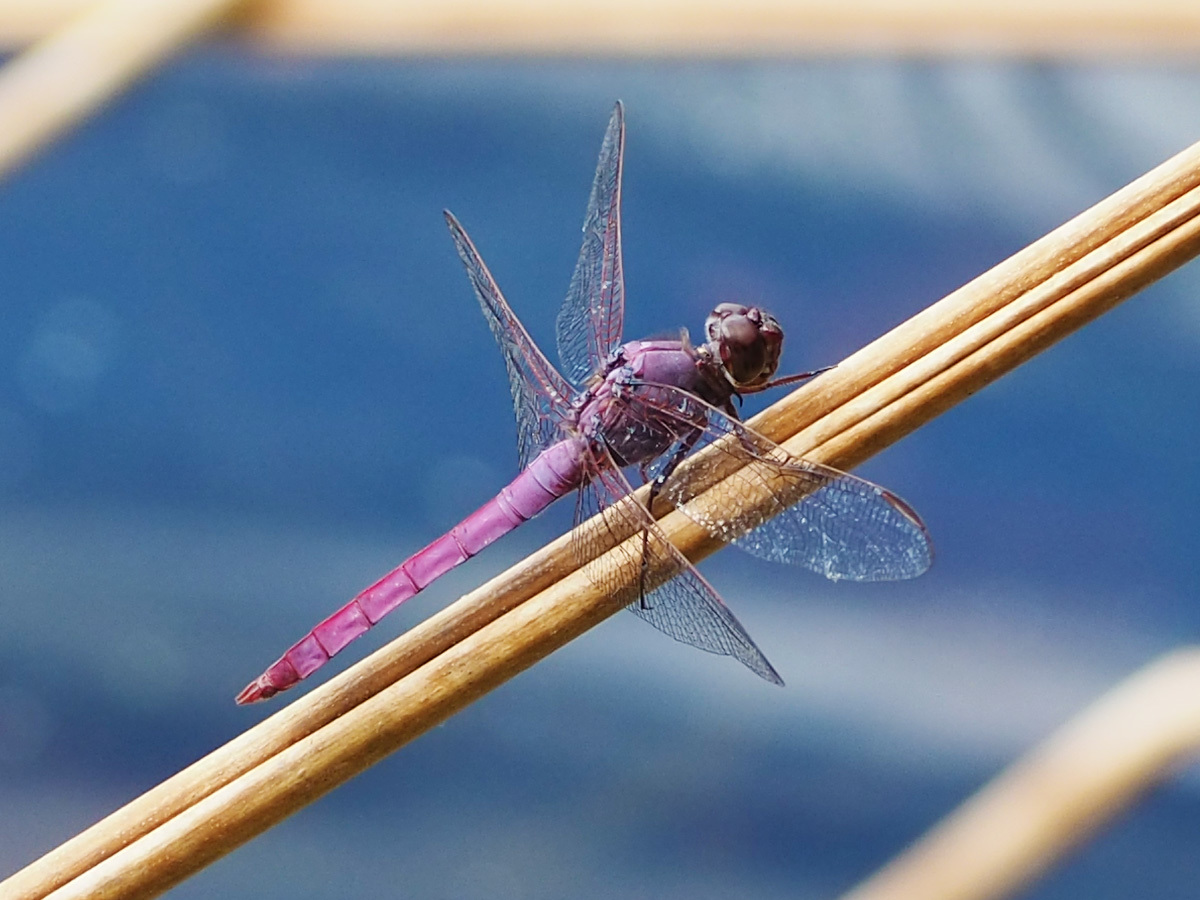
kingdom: Animalia
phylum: Arthropoda
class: Insecta
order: Odonata
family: Libellulidae
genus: Orthemis
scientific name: Orthemis ferruginea
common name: Roseate skimmer
